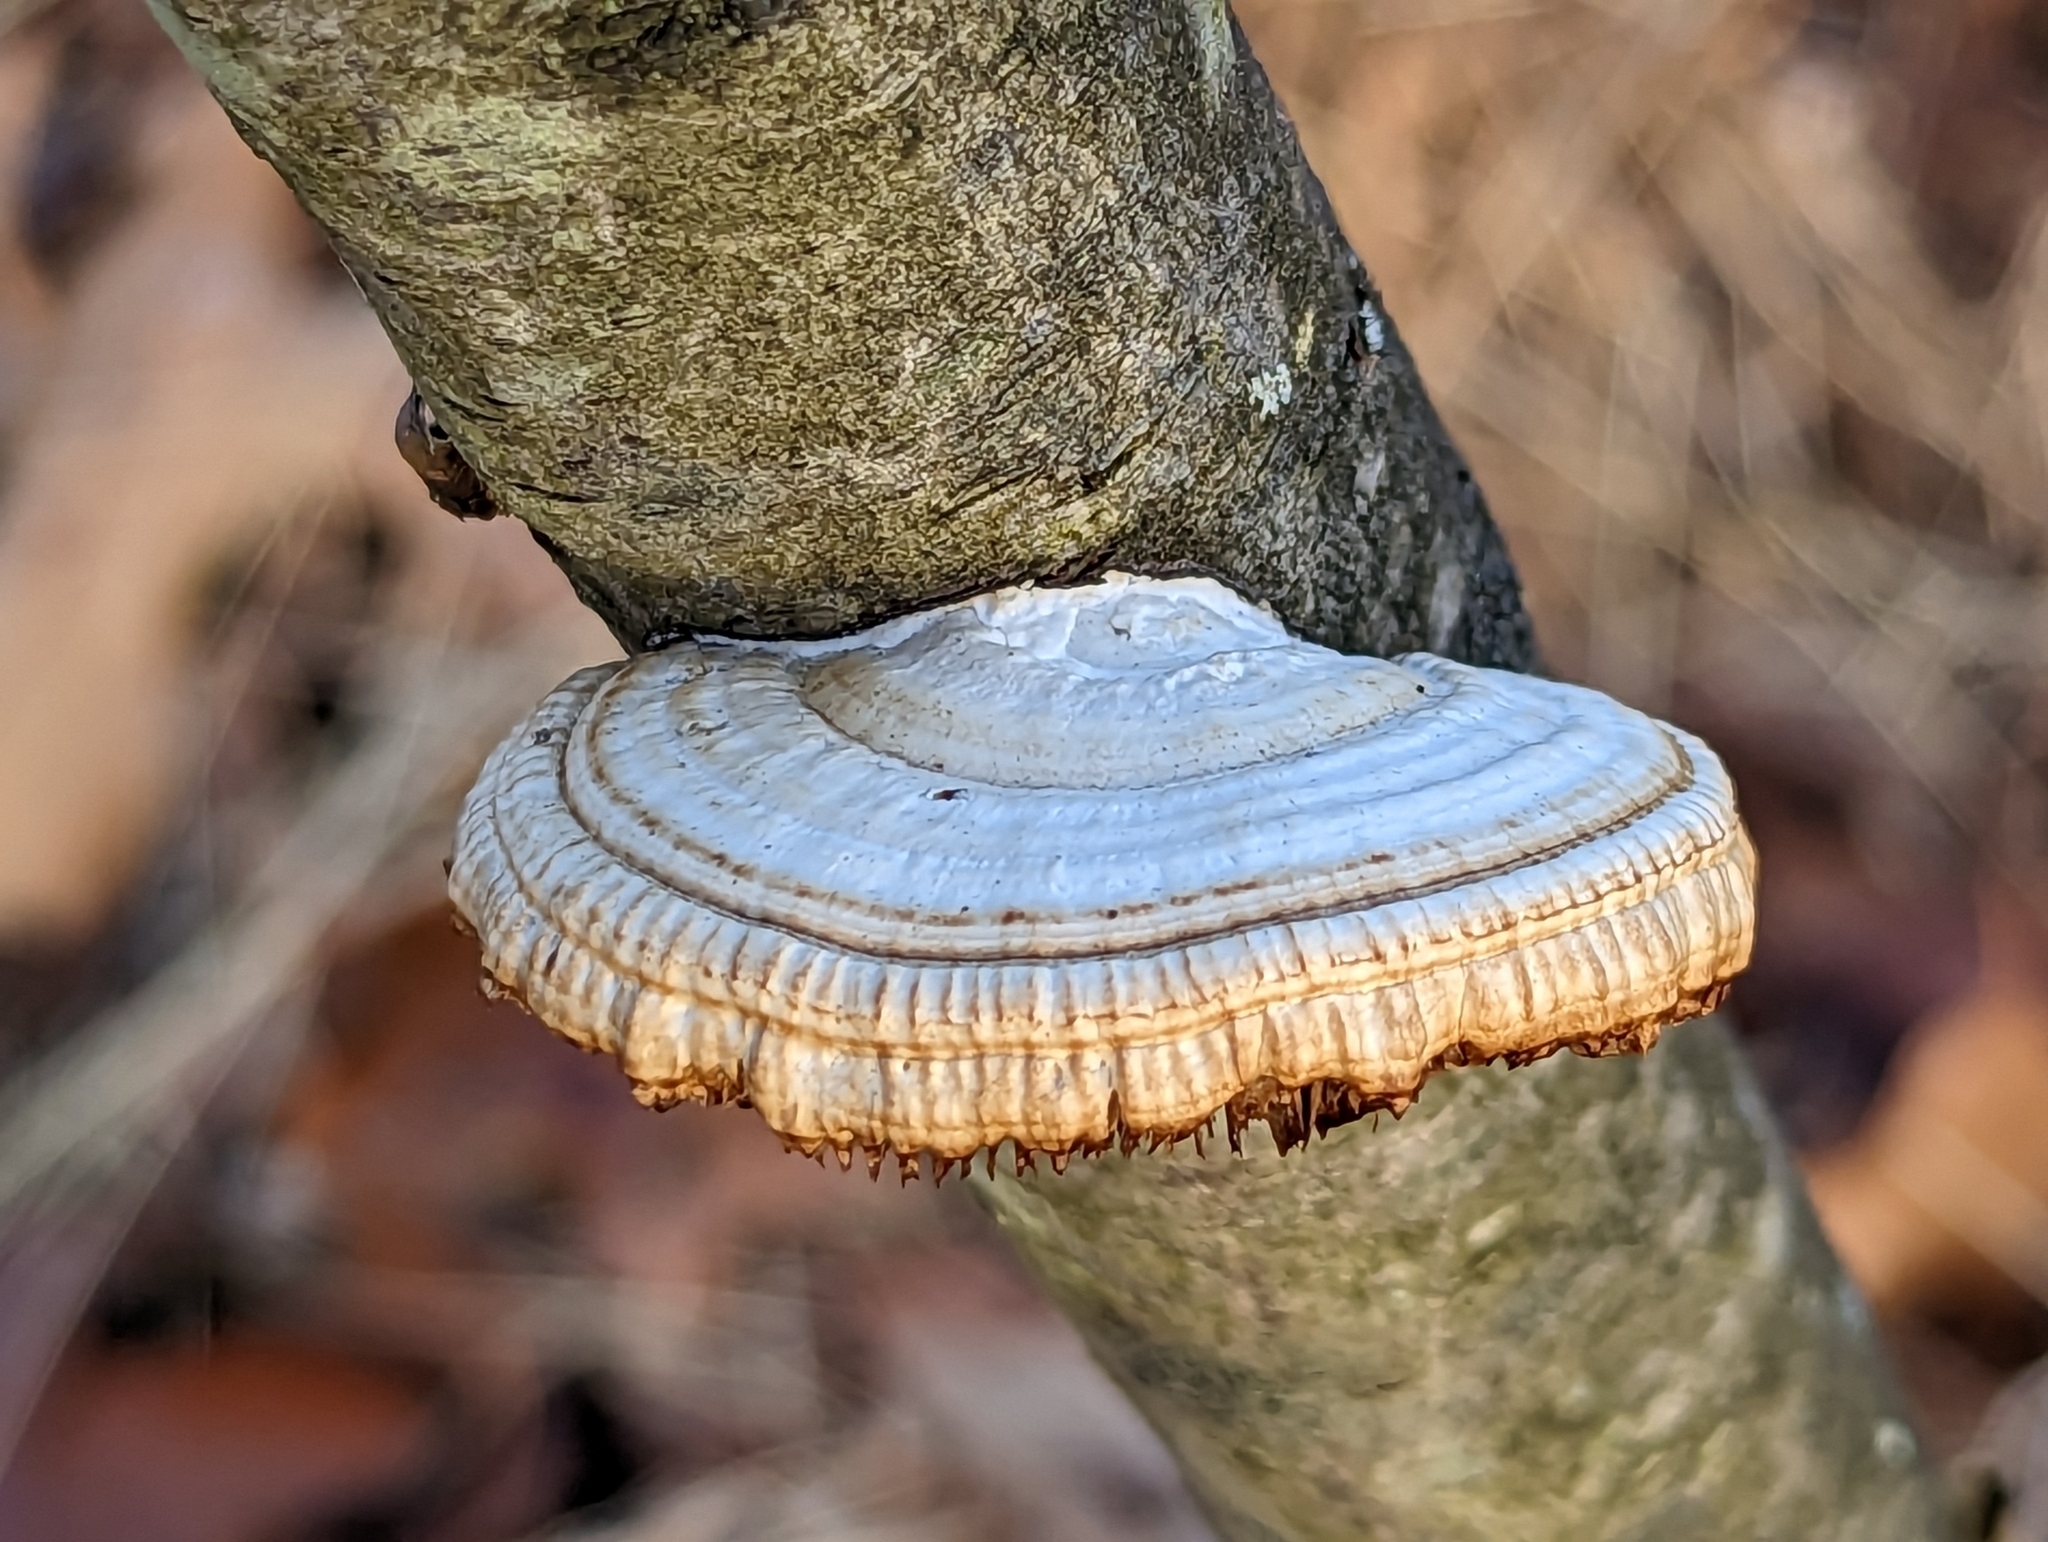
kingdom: Fungi
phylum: Basidiomycota
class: Agaricomycetes
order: Polyporales
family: Polyporaceae
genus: Daedaleopsis
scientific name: Daedaleopsis confragosa
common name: Blushing bracket
